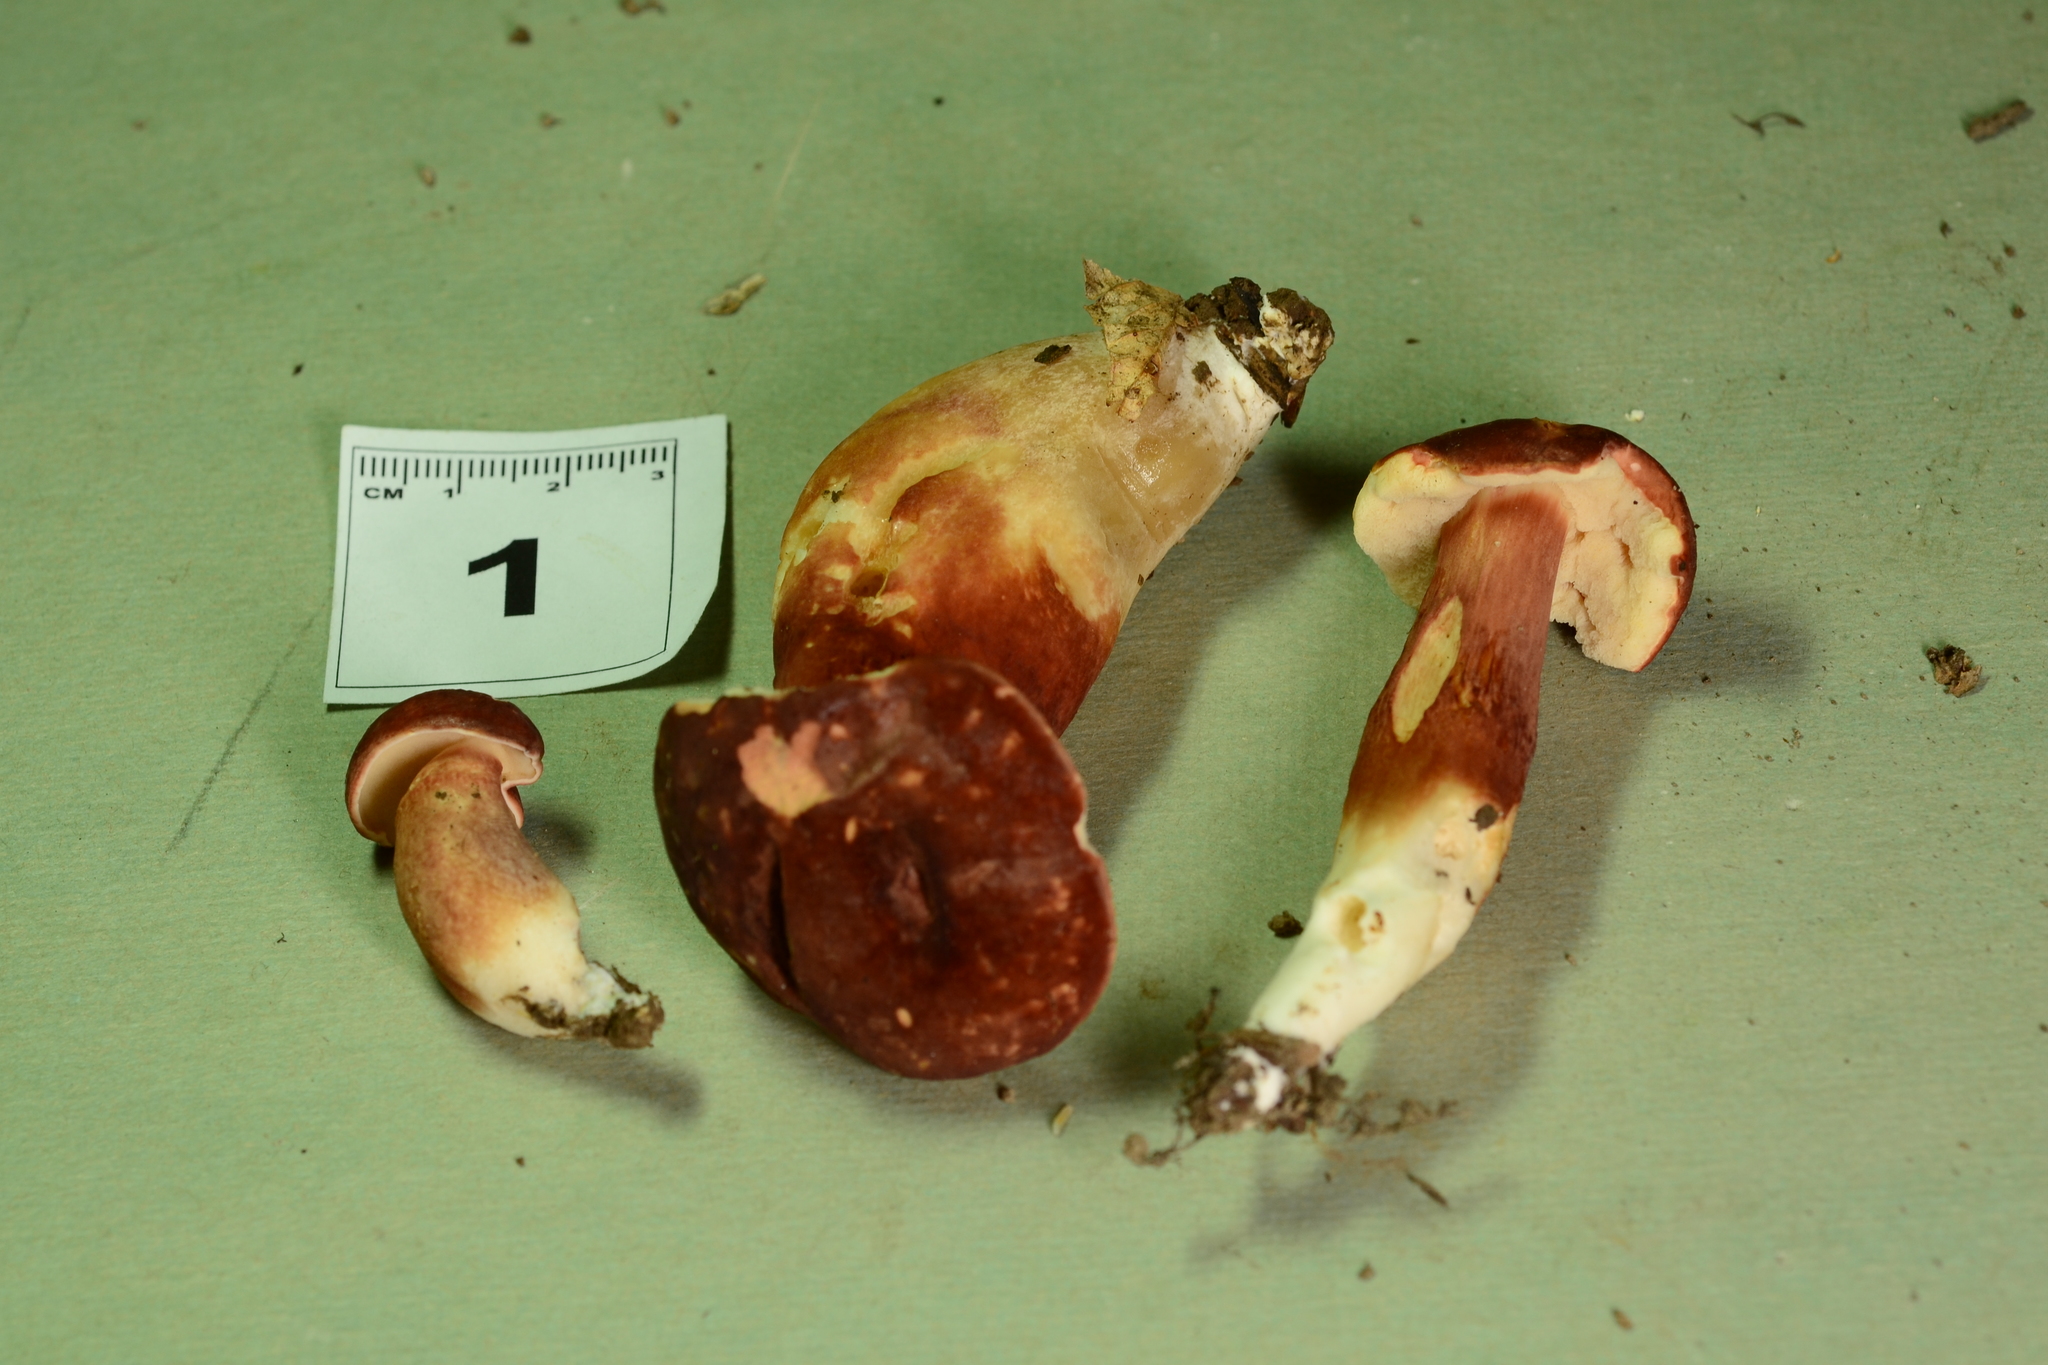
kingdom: Fungi
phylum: Basidiomycota
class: Agaricomycetes
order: Boletales
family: Boletaceae
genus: Xanthoconium
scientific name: Xanthoconium purpureum
